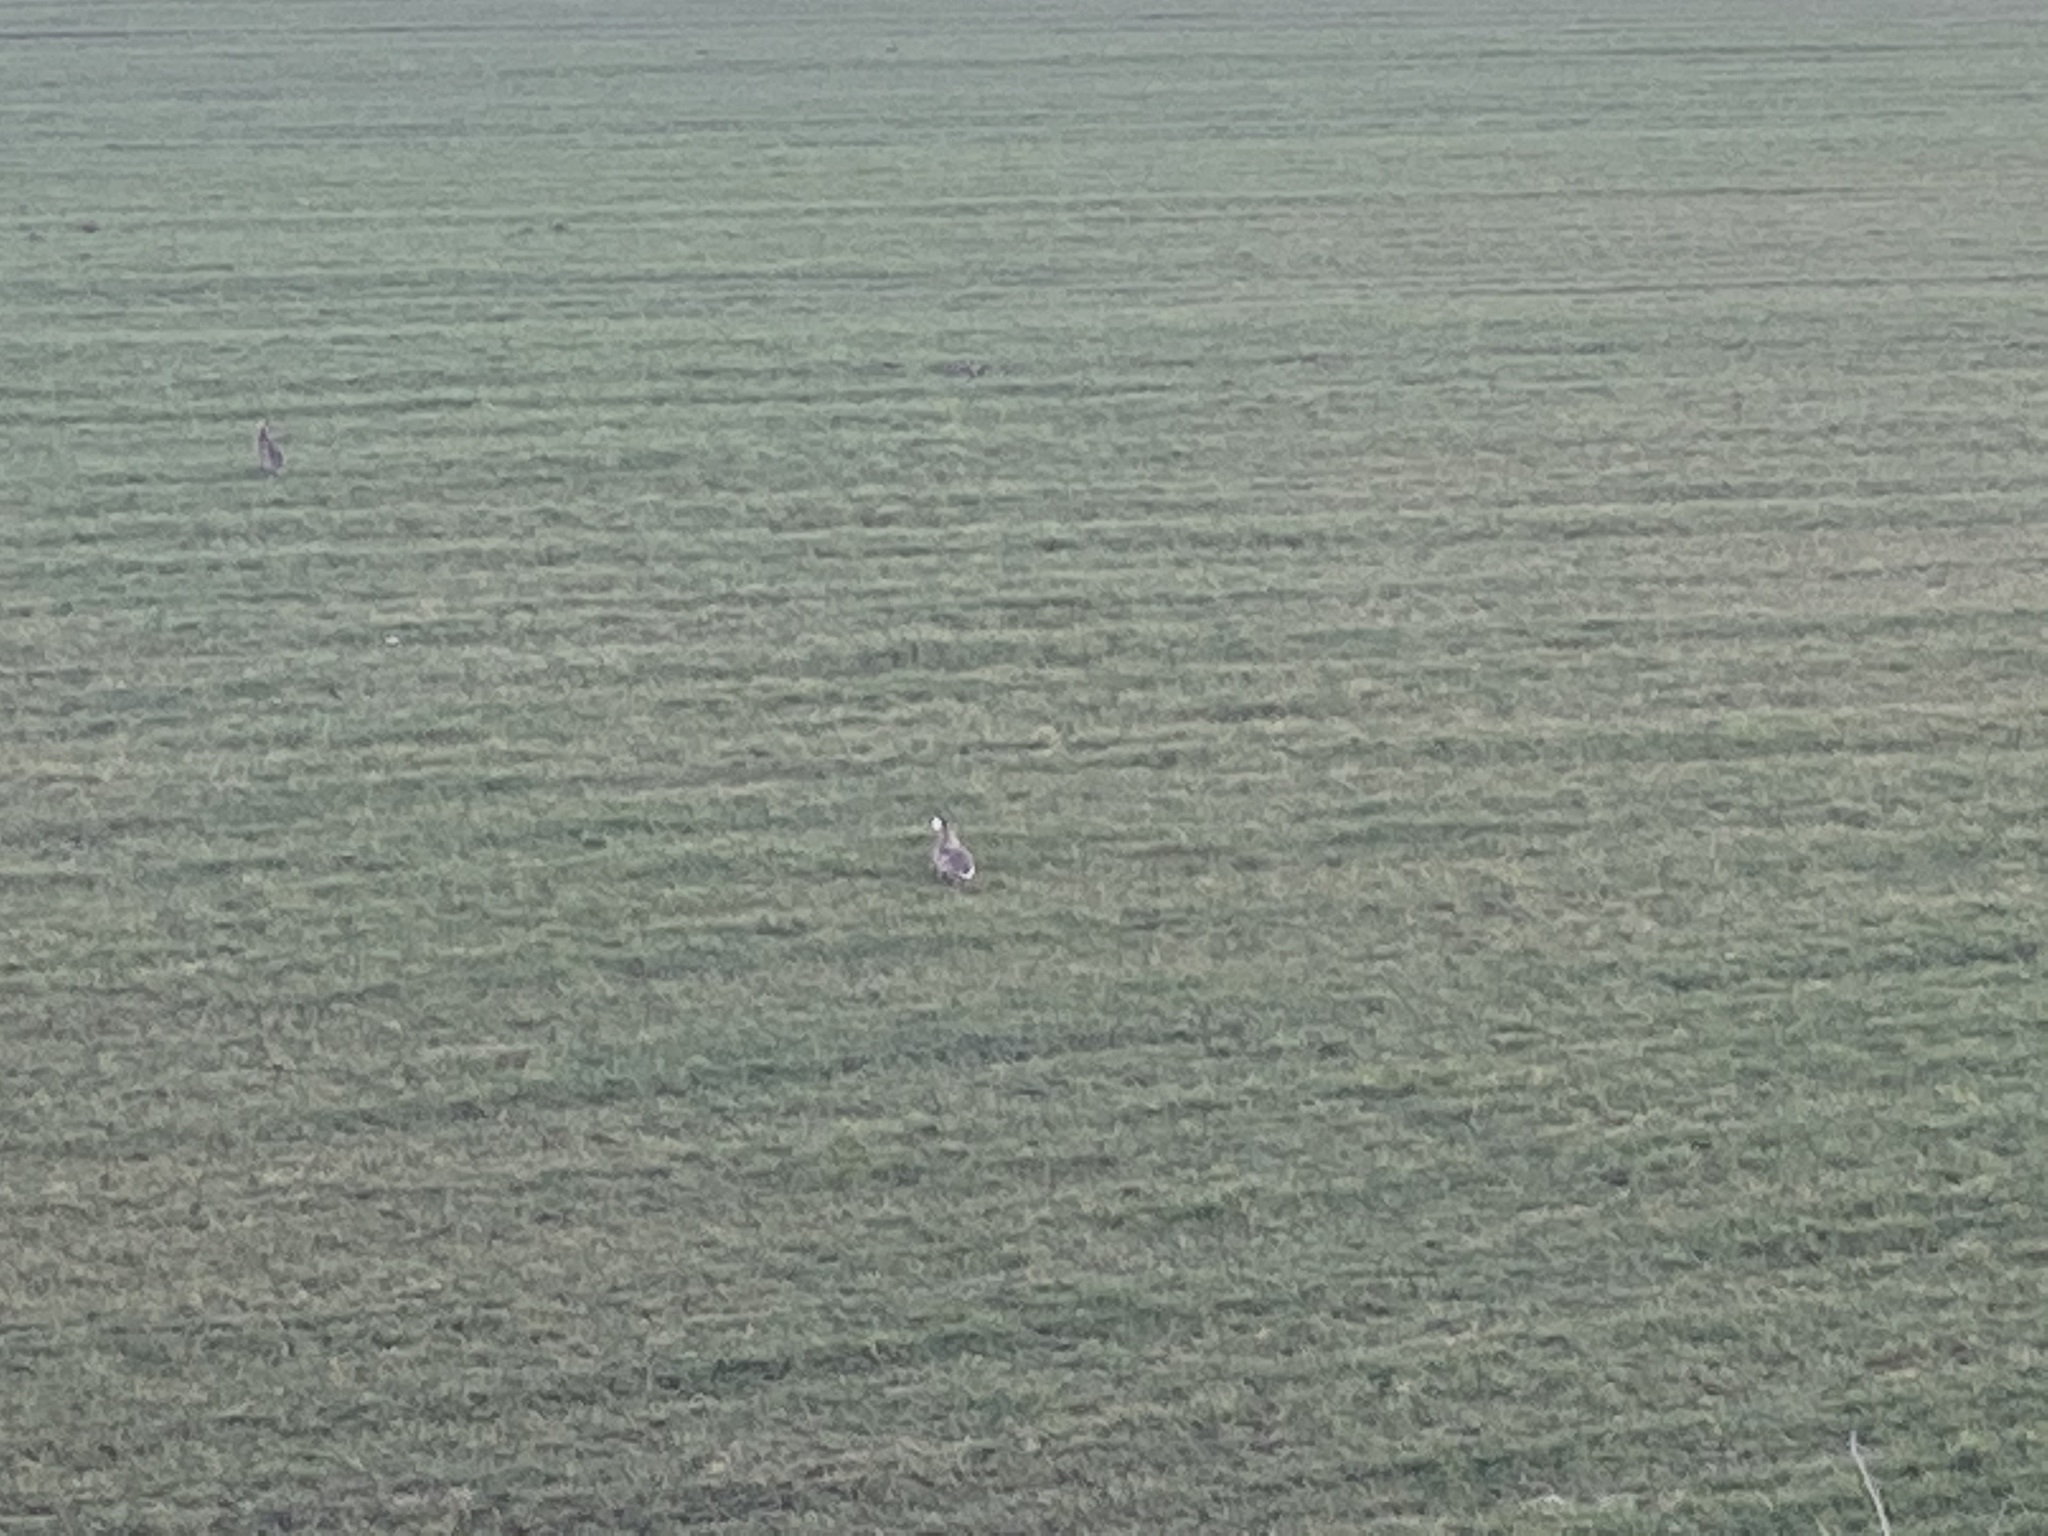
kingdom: Animalia
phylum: Chordata
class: Mammalia
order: Lagomorpha
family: Leporidae
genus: Lepus
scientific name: Lepus europaeus
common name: European hare
